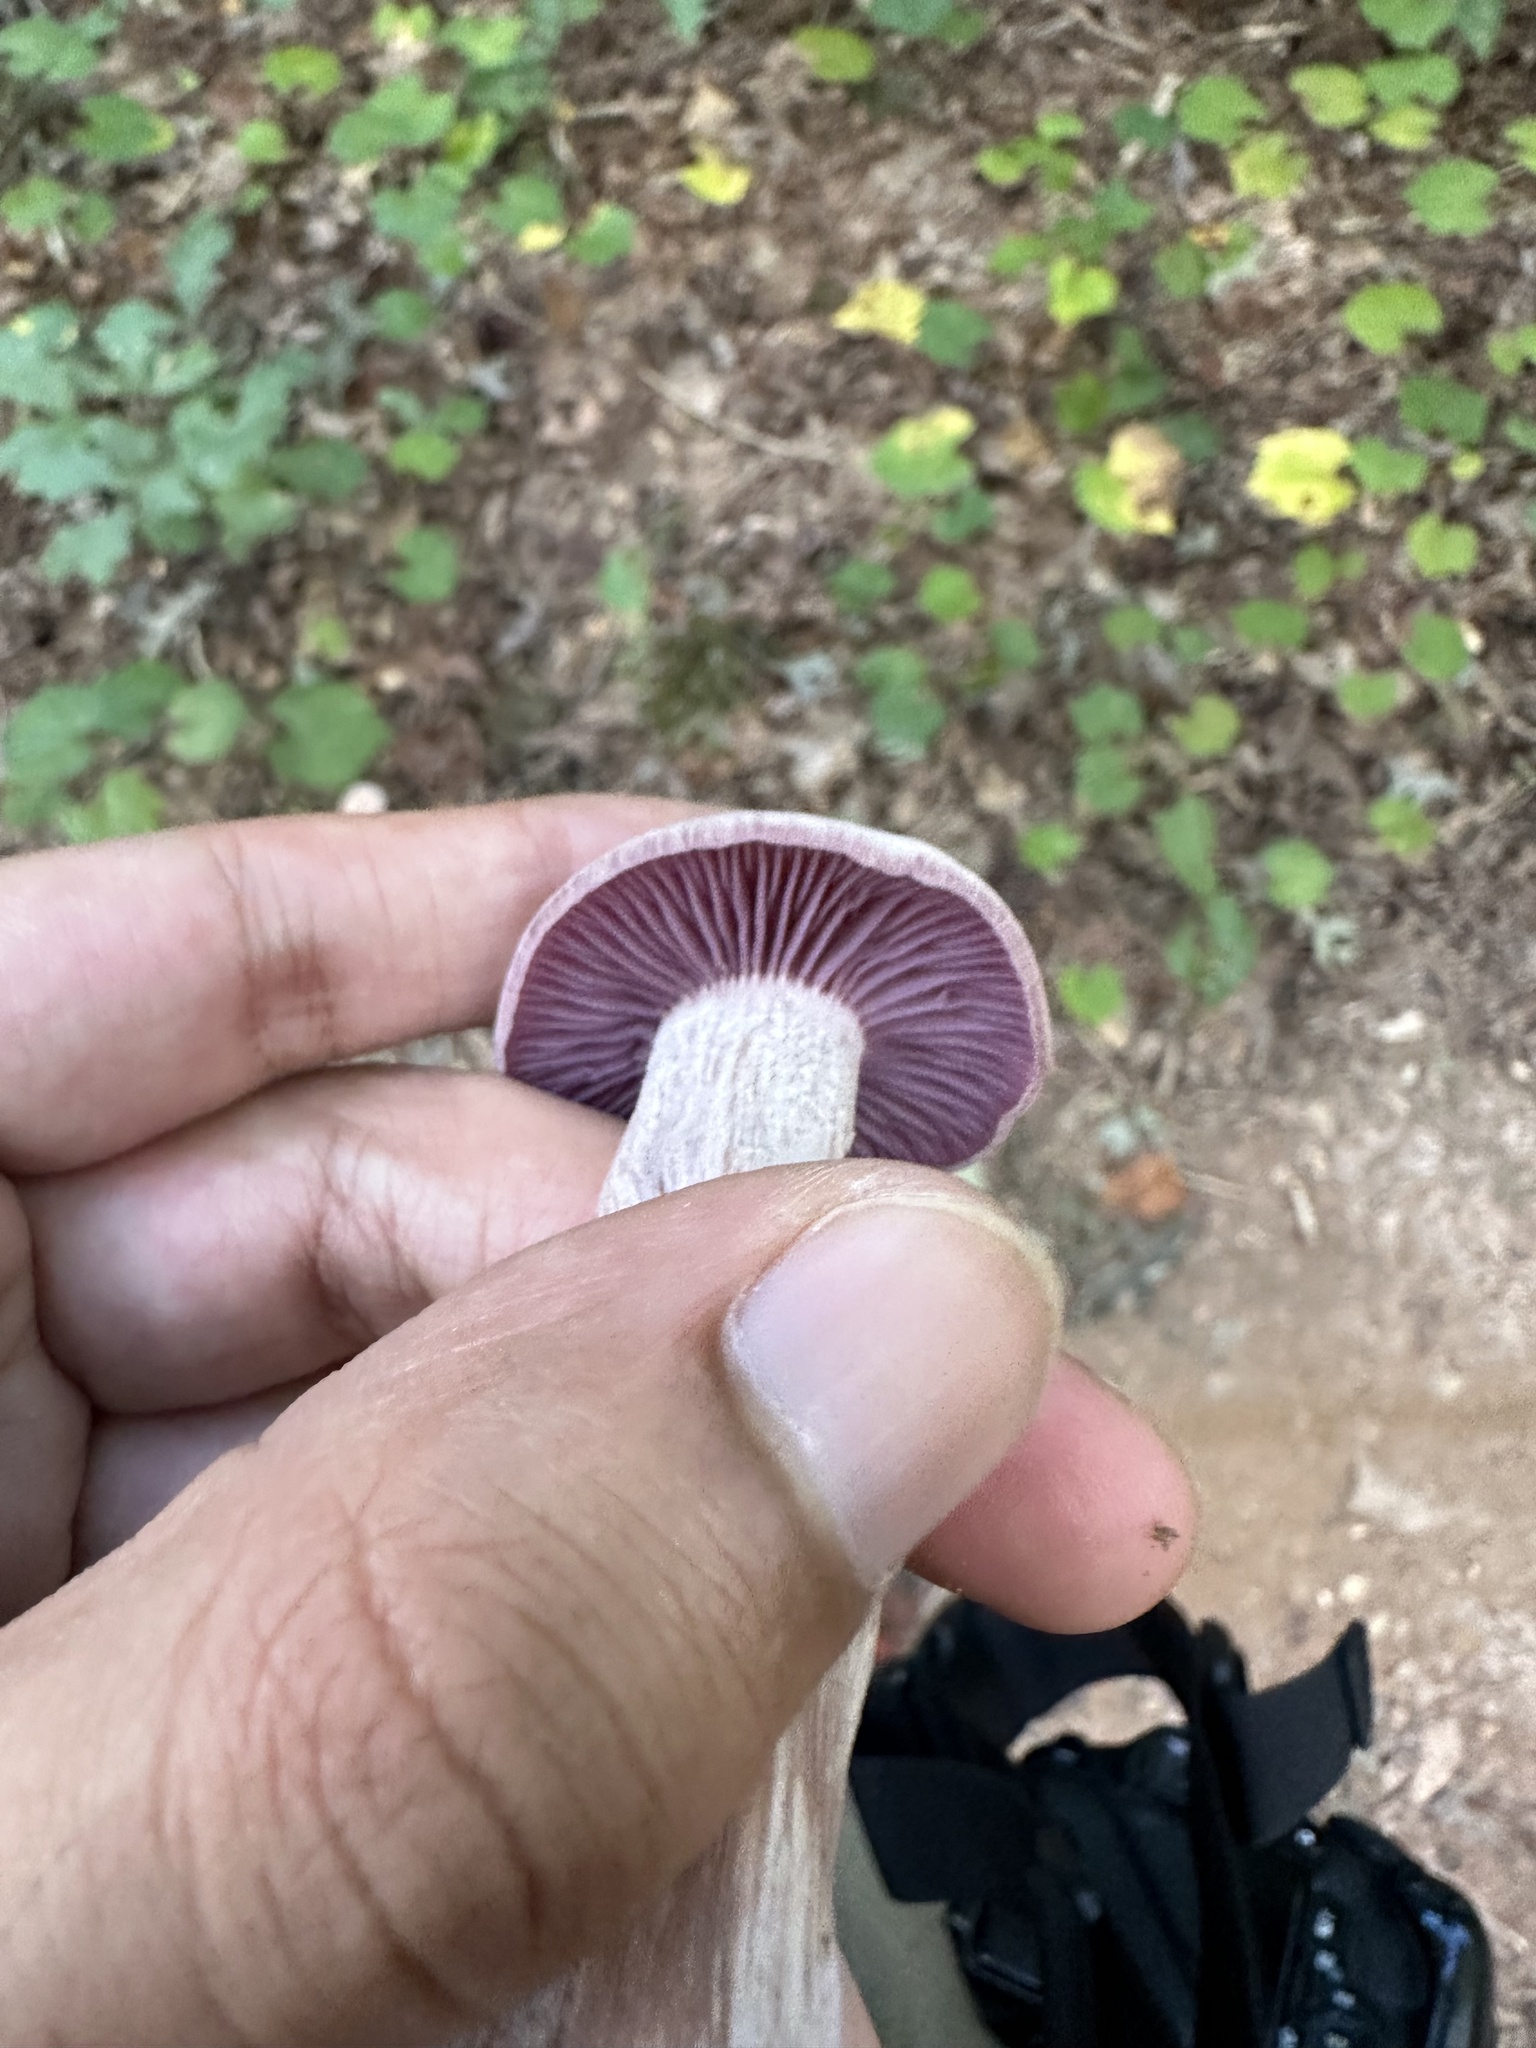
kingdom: Fungi
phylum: Basidiomycota
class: Agaricomycetes
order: Agaricales
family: Hydnangiaceae
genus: Laccaria
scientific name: Laccaria ochropurpurea
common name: Purple laccaria
